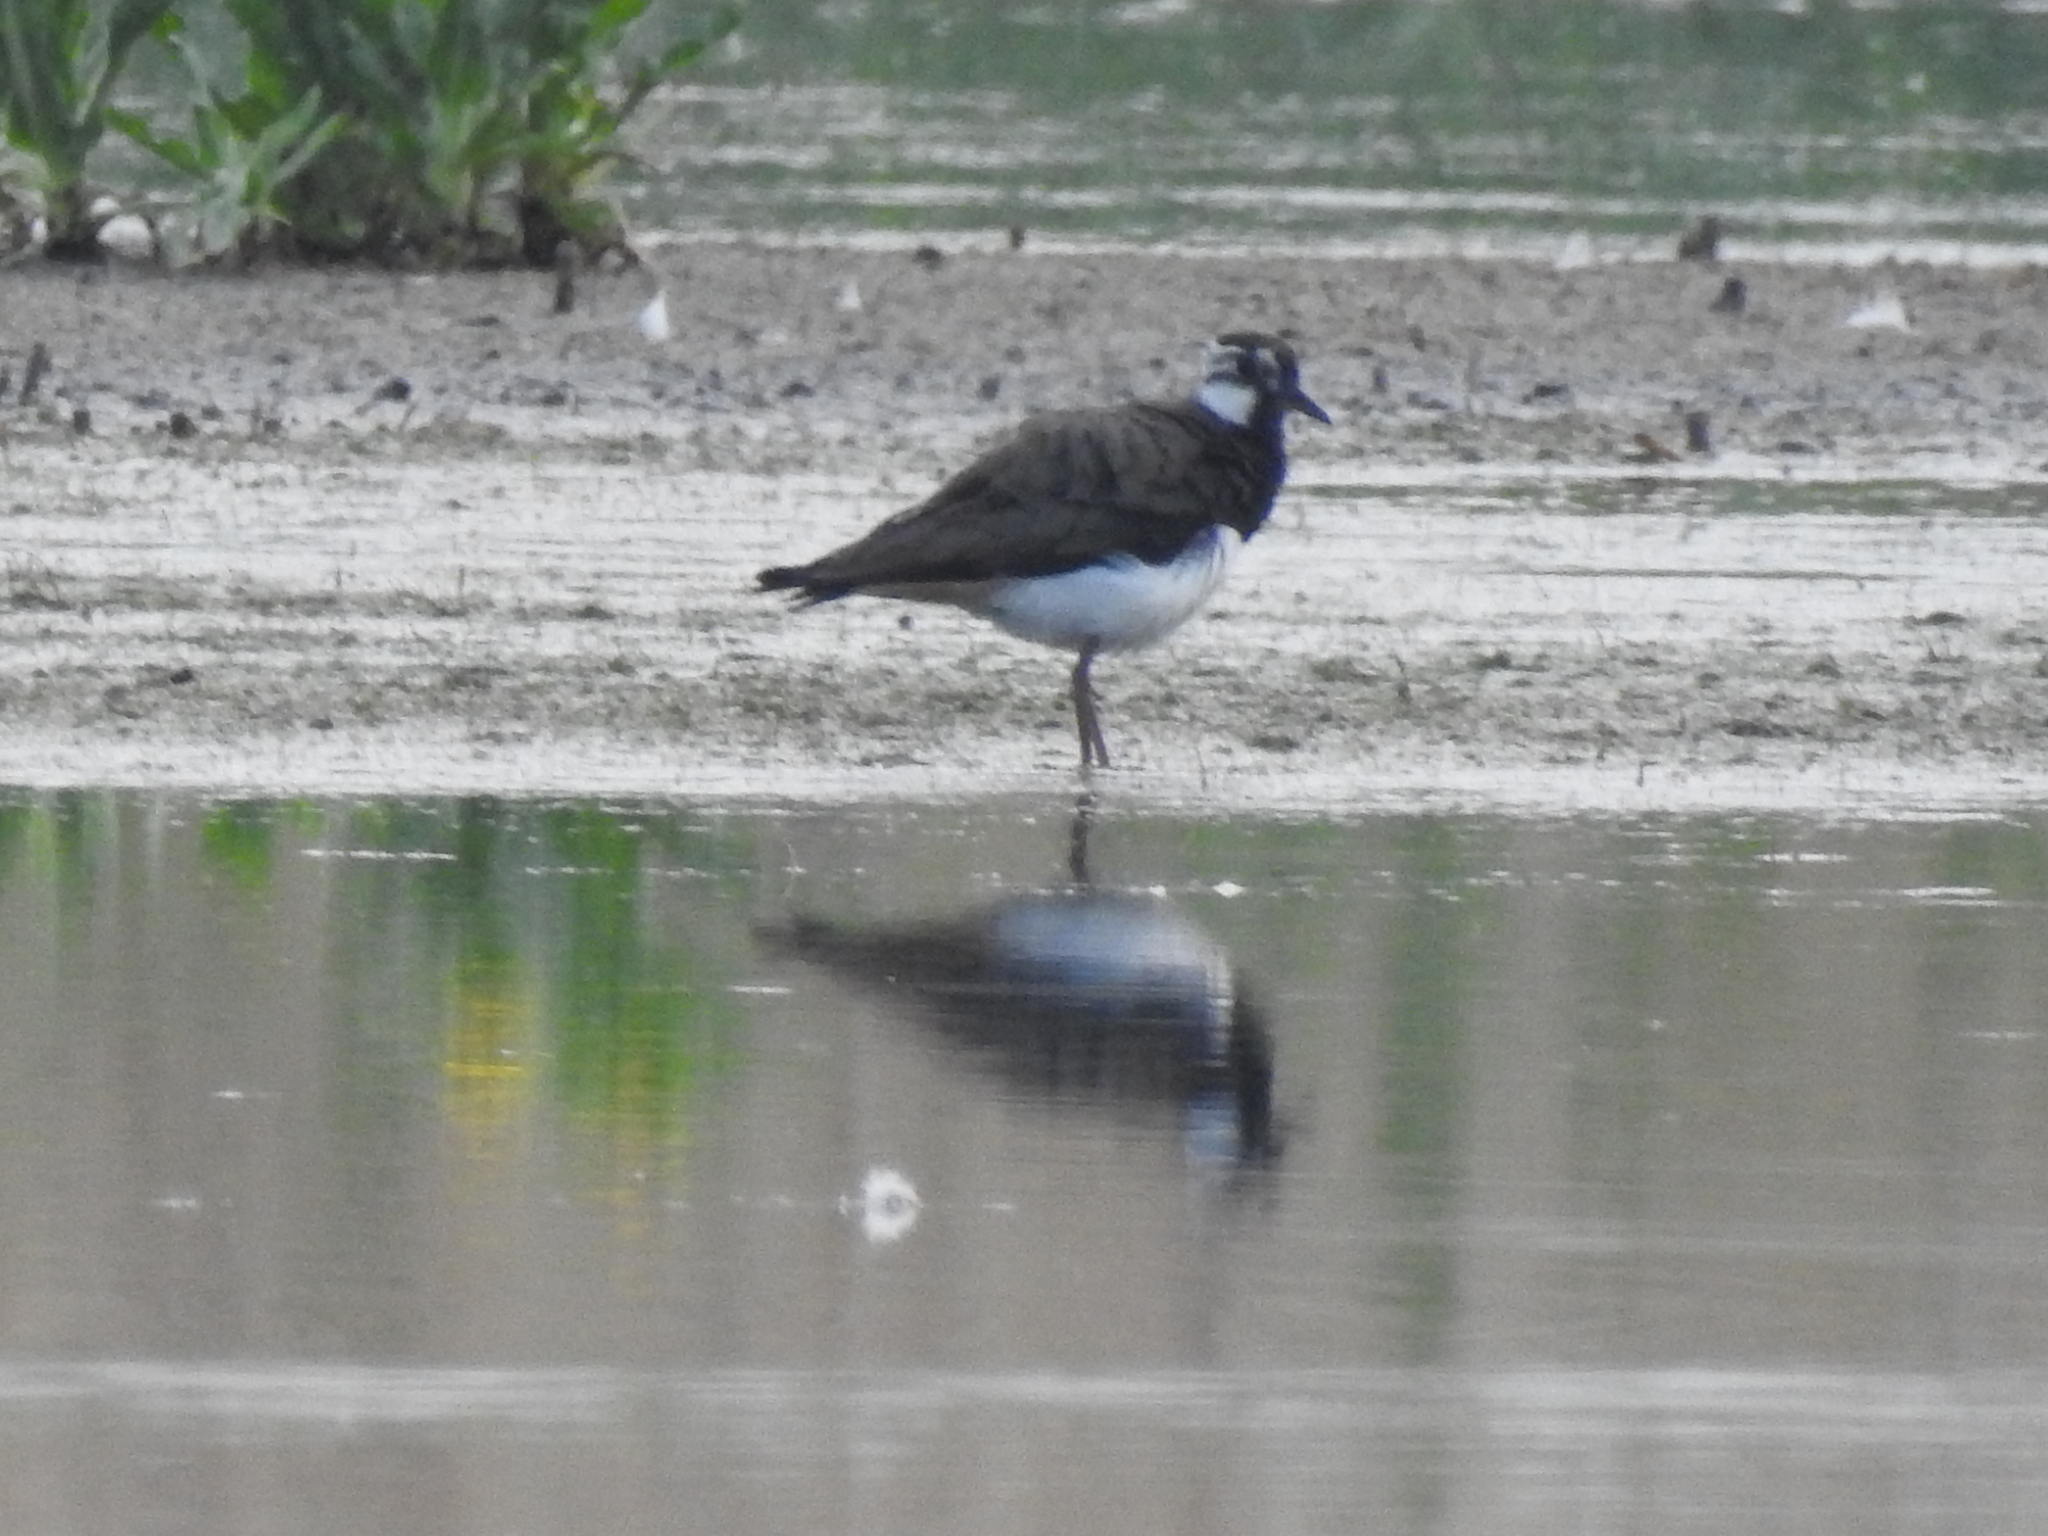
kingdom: Animalia
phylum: Chordata
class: Aves
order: Charadriiformes
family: Charadriidae
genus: Vanellus
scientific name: Vanellus vanellus
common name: Northern lapwing
